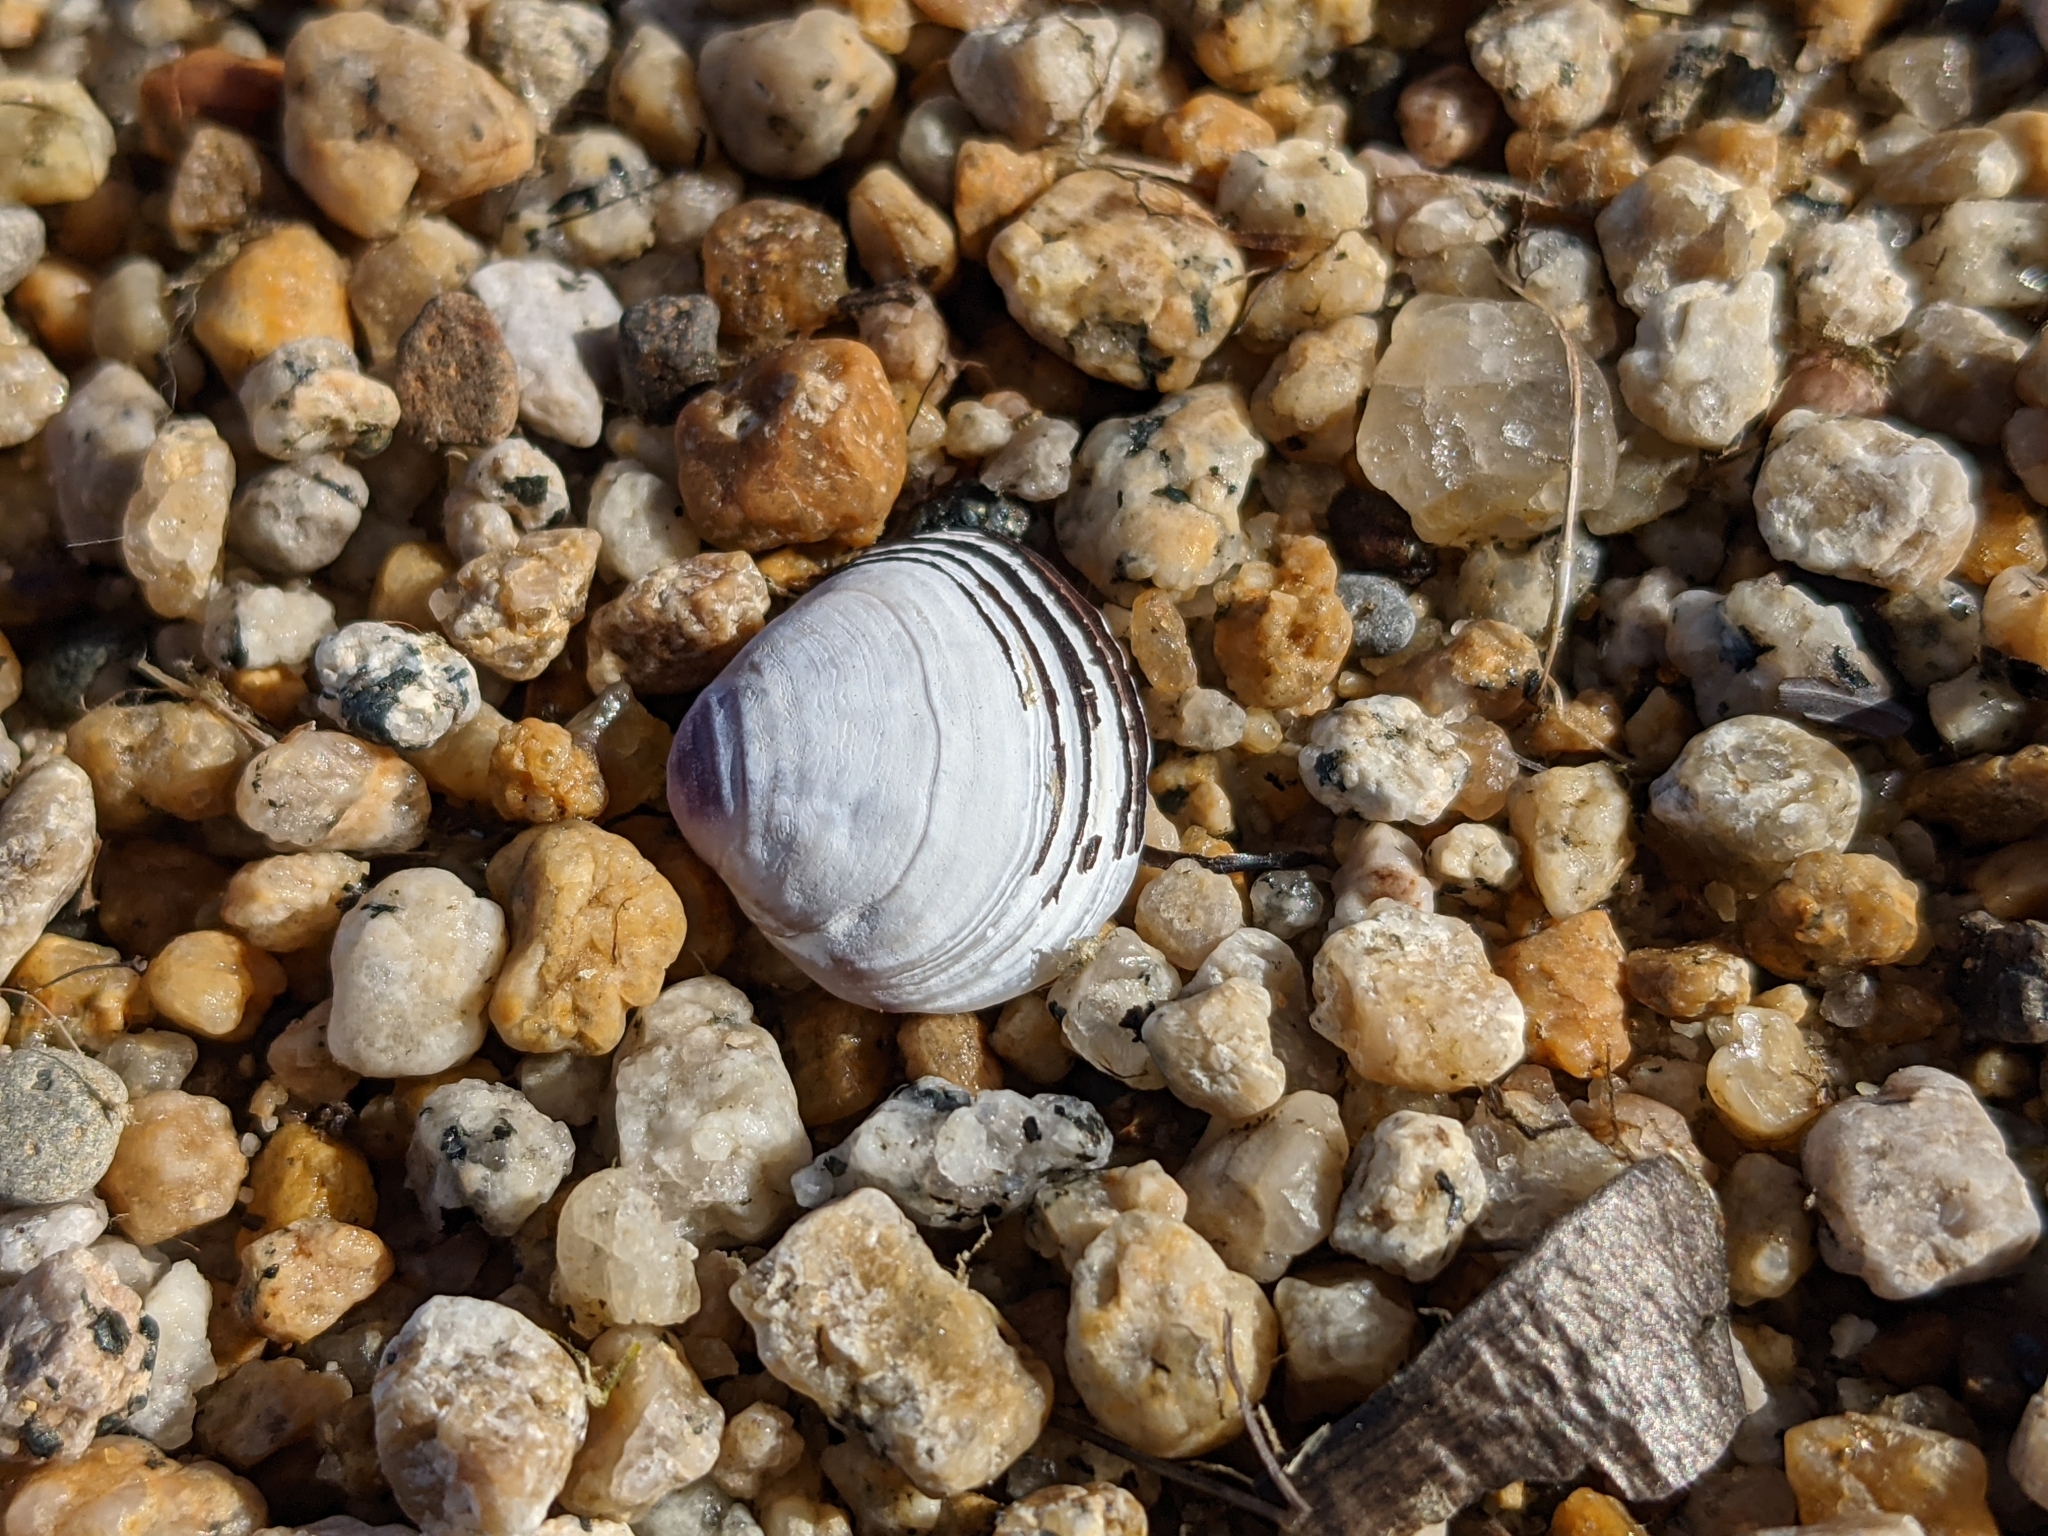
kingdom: Animalia
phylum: Mollusca
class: Bivalvia
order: Venerida
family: Cyrenidae
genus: Corbicula
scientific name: Corbicula fluminea
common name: Asian clam
